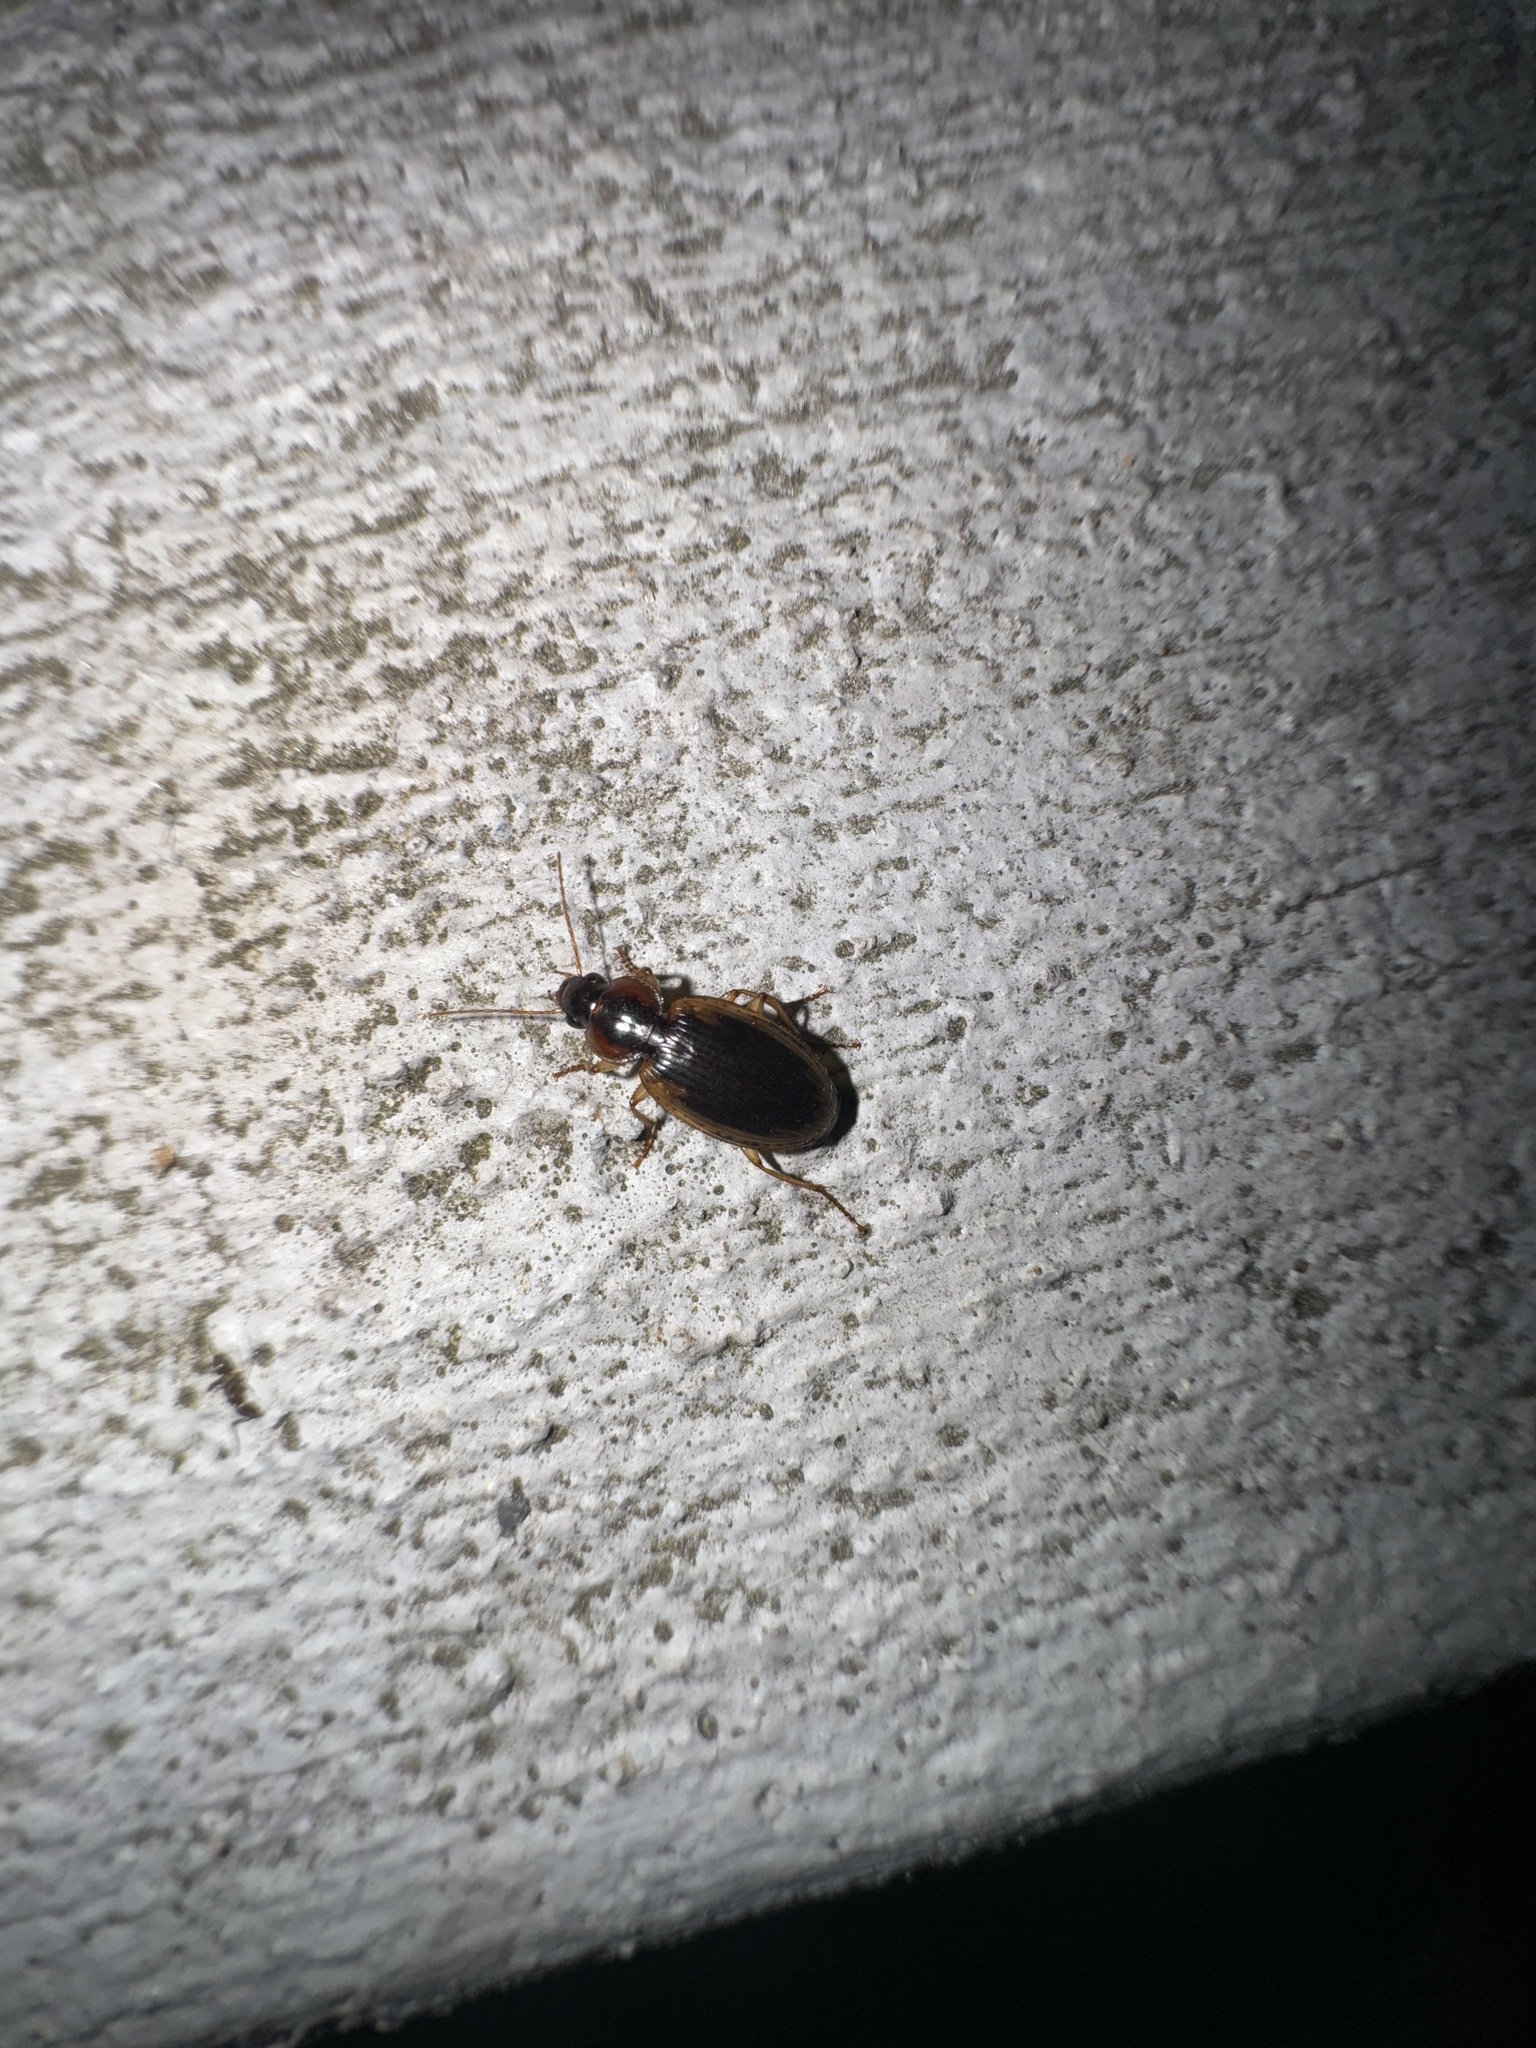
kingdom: Animalia
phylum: Arthropoda
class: Insecta
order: Coleoptera
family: Carabidae
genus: Tanystoma
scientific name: Tanystoma maculicolle
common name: Tule beetle
